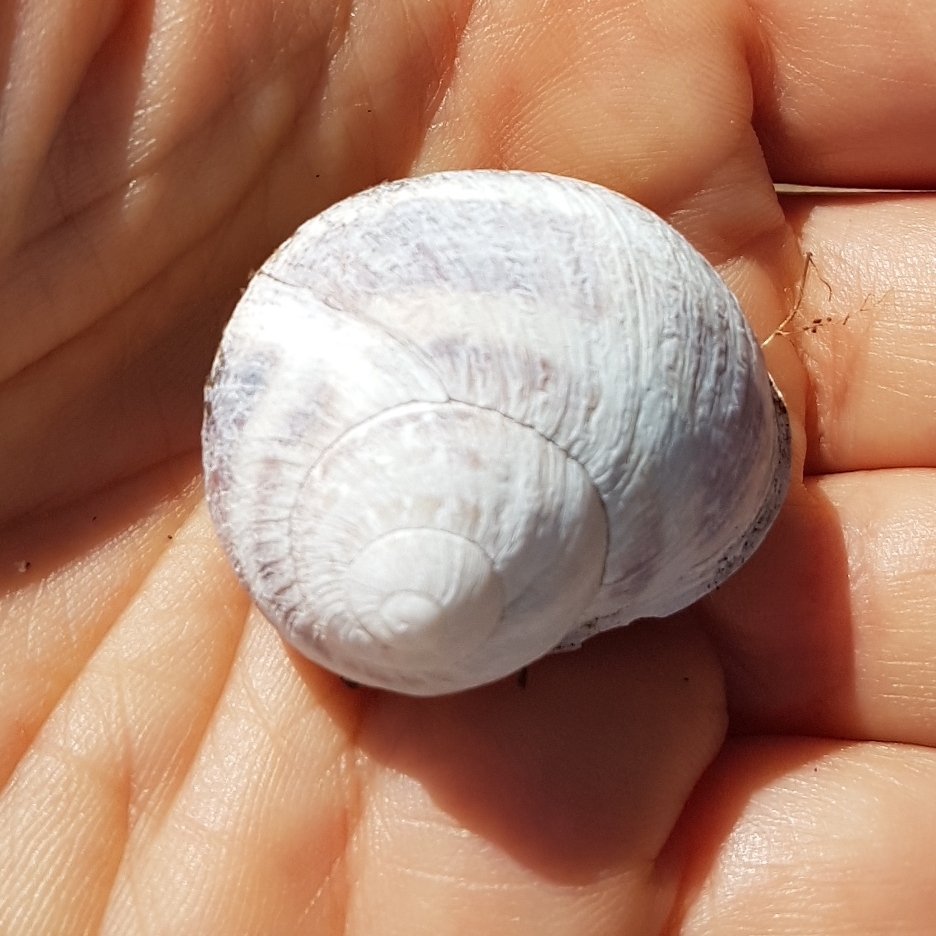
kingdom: Animalia
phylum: Mollusca
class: Gastropoda
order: Stylommatophora
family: Helicidae
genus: Cornu
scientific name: Cornu aspersum
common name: Brown garden snail
